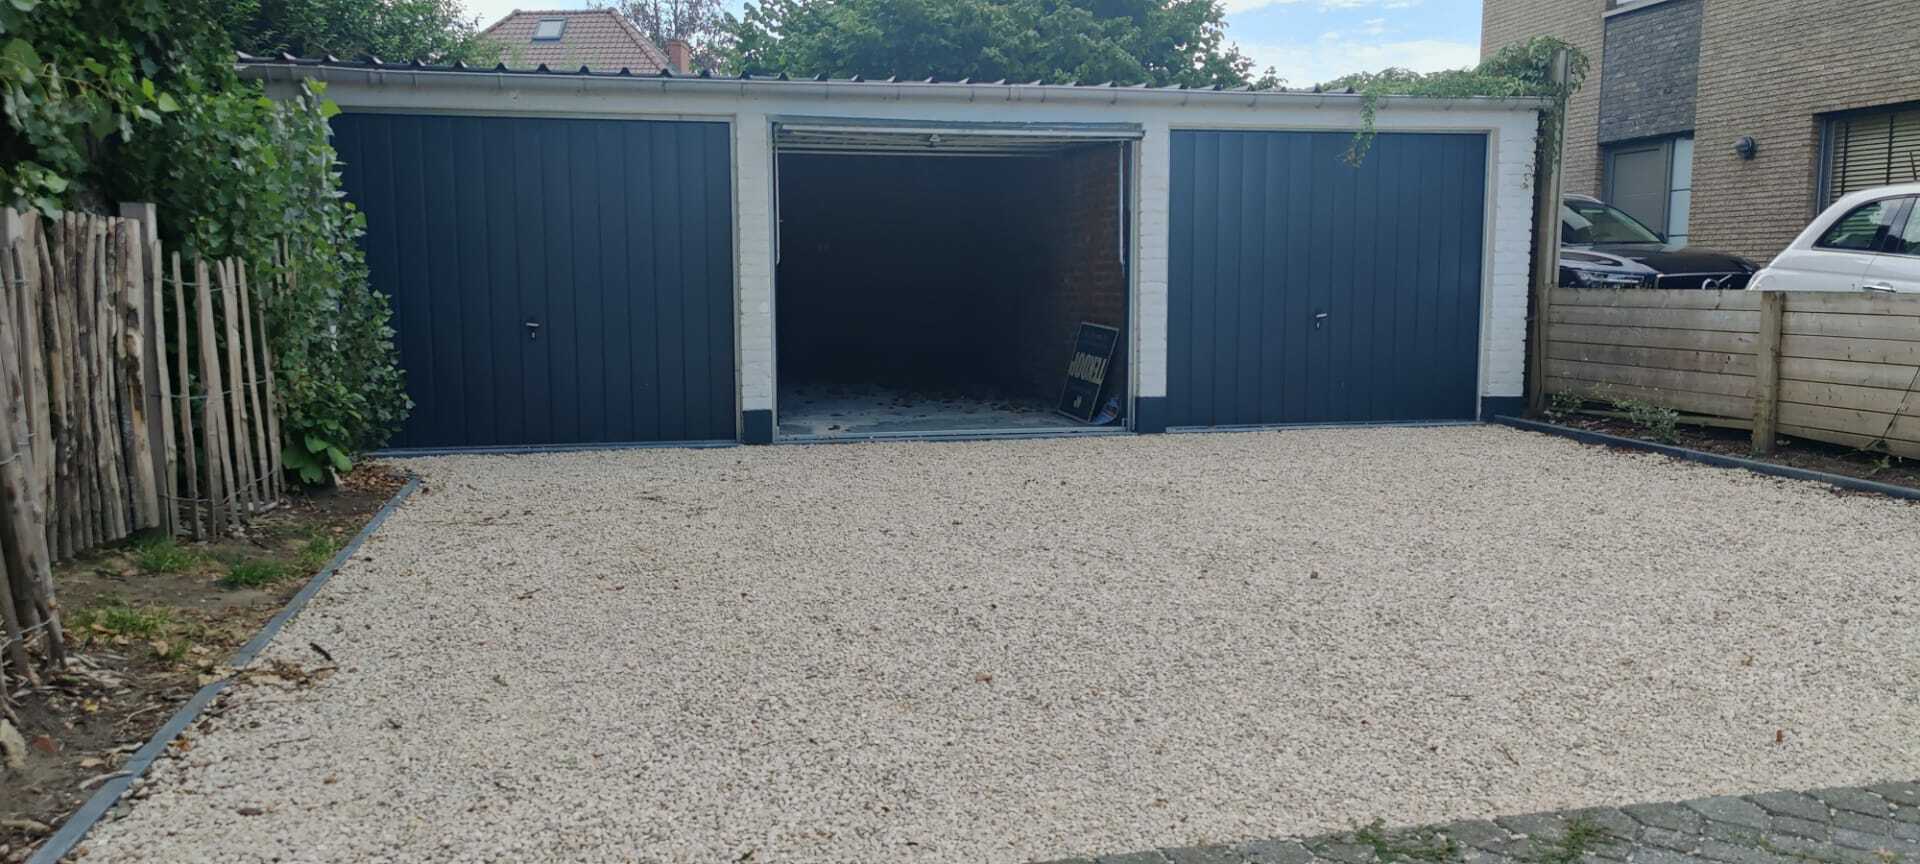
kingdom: Animalia
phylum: Arthropoda
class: Insecta
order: Hymenoptera
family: Vespidae
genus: Vespa
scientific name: Vespa velutina
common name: Asian hornet
